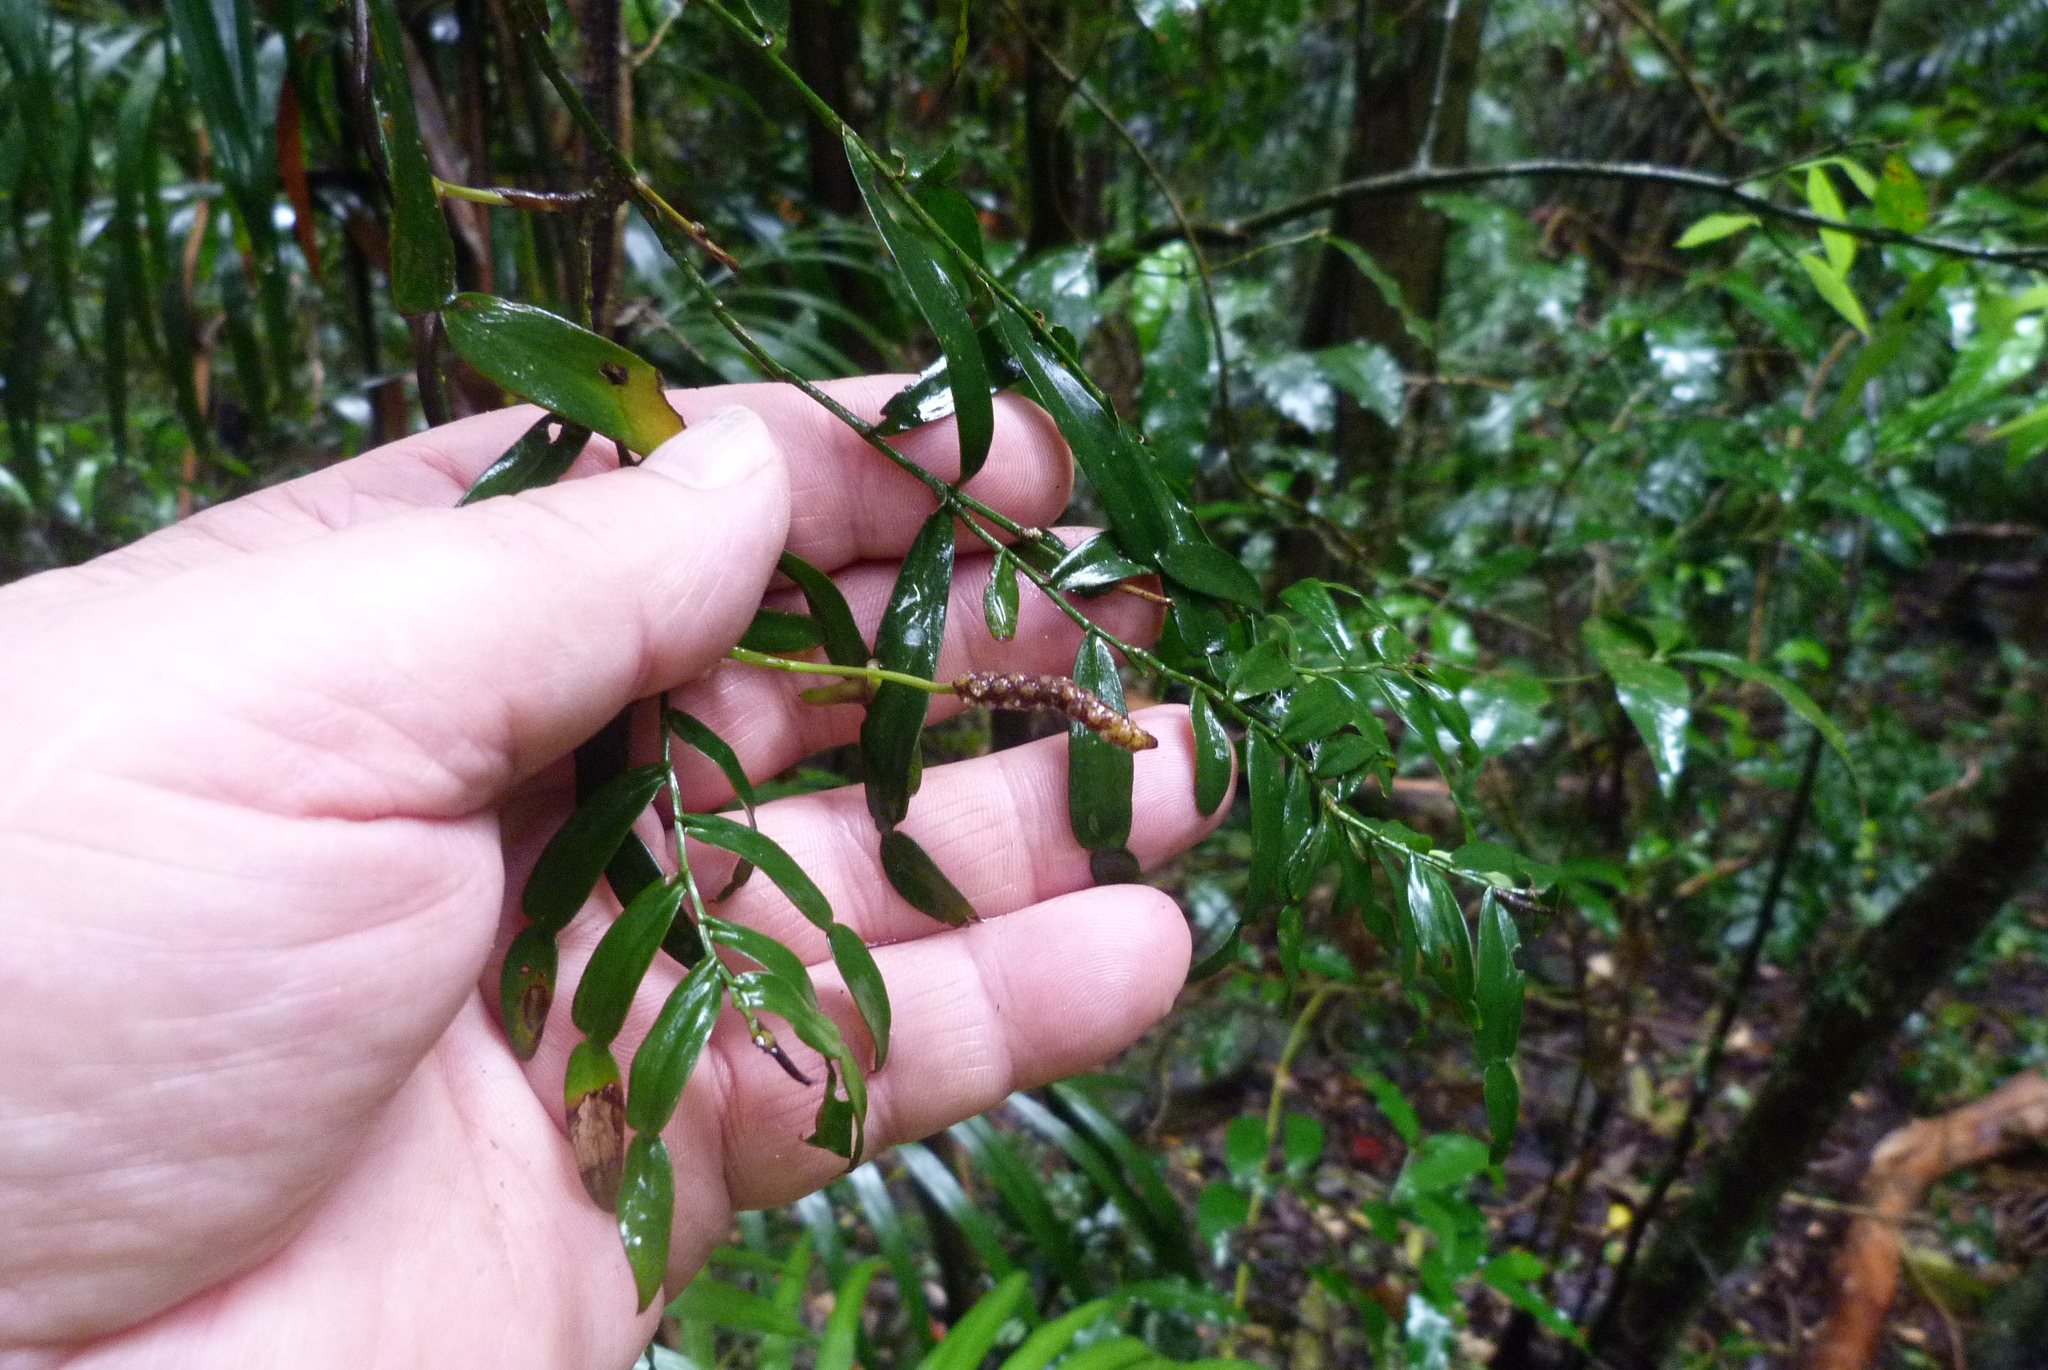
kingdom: Plantae
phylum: Tracheophyta
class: Liliopsida
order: Alismatales
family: Araceae
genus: Pothos
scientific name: Pothos longipes
